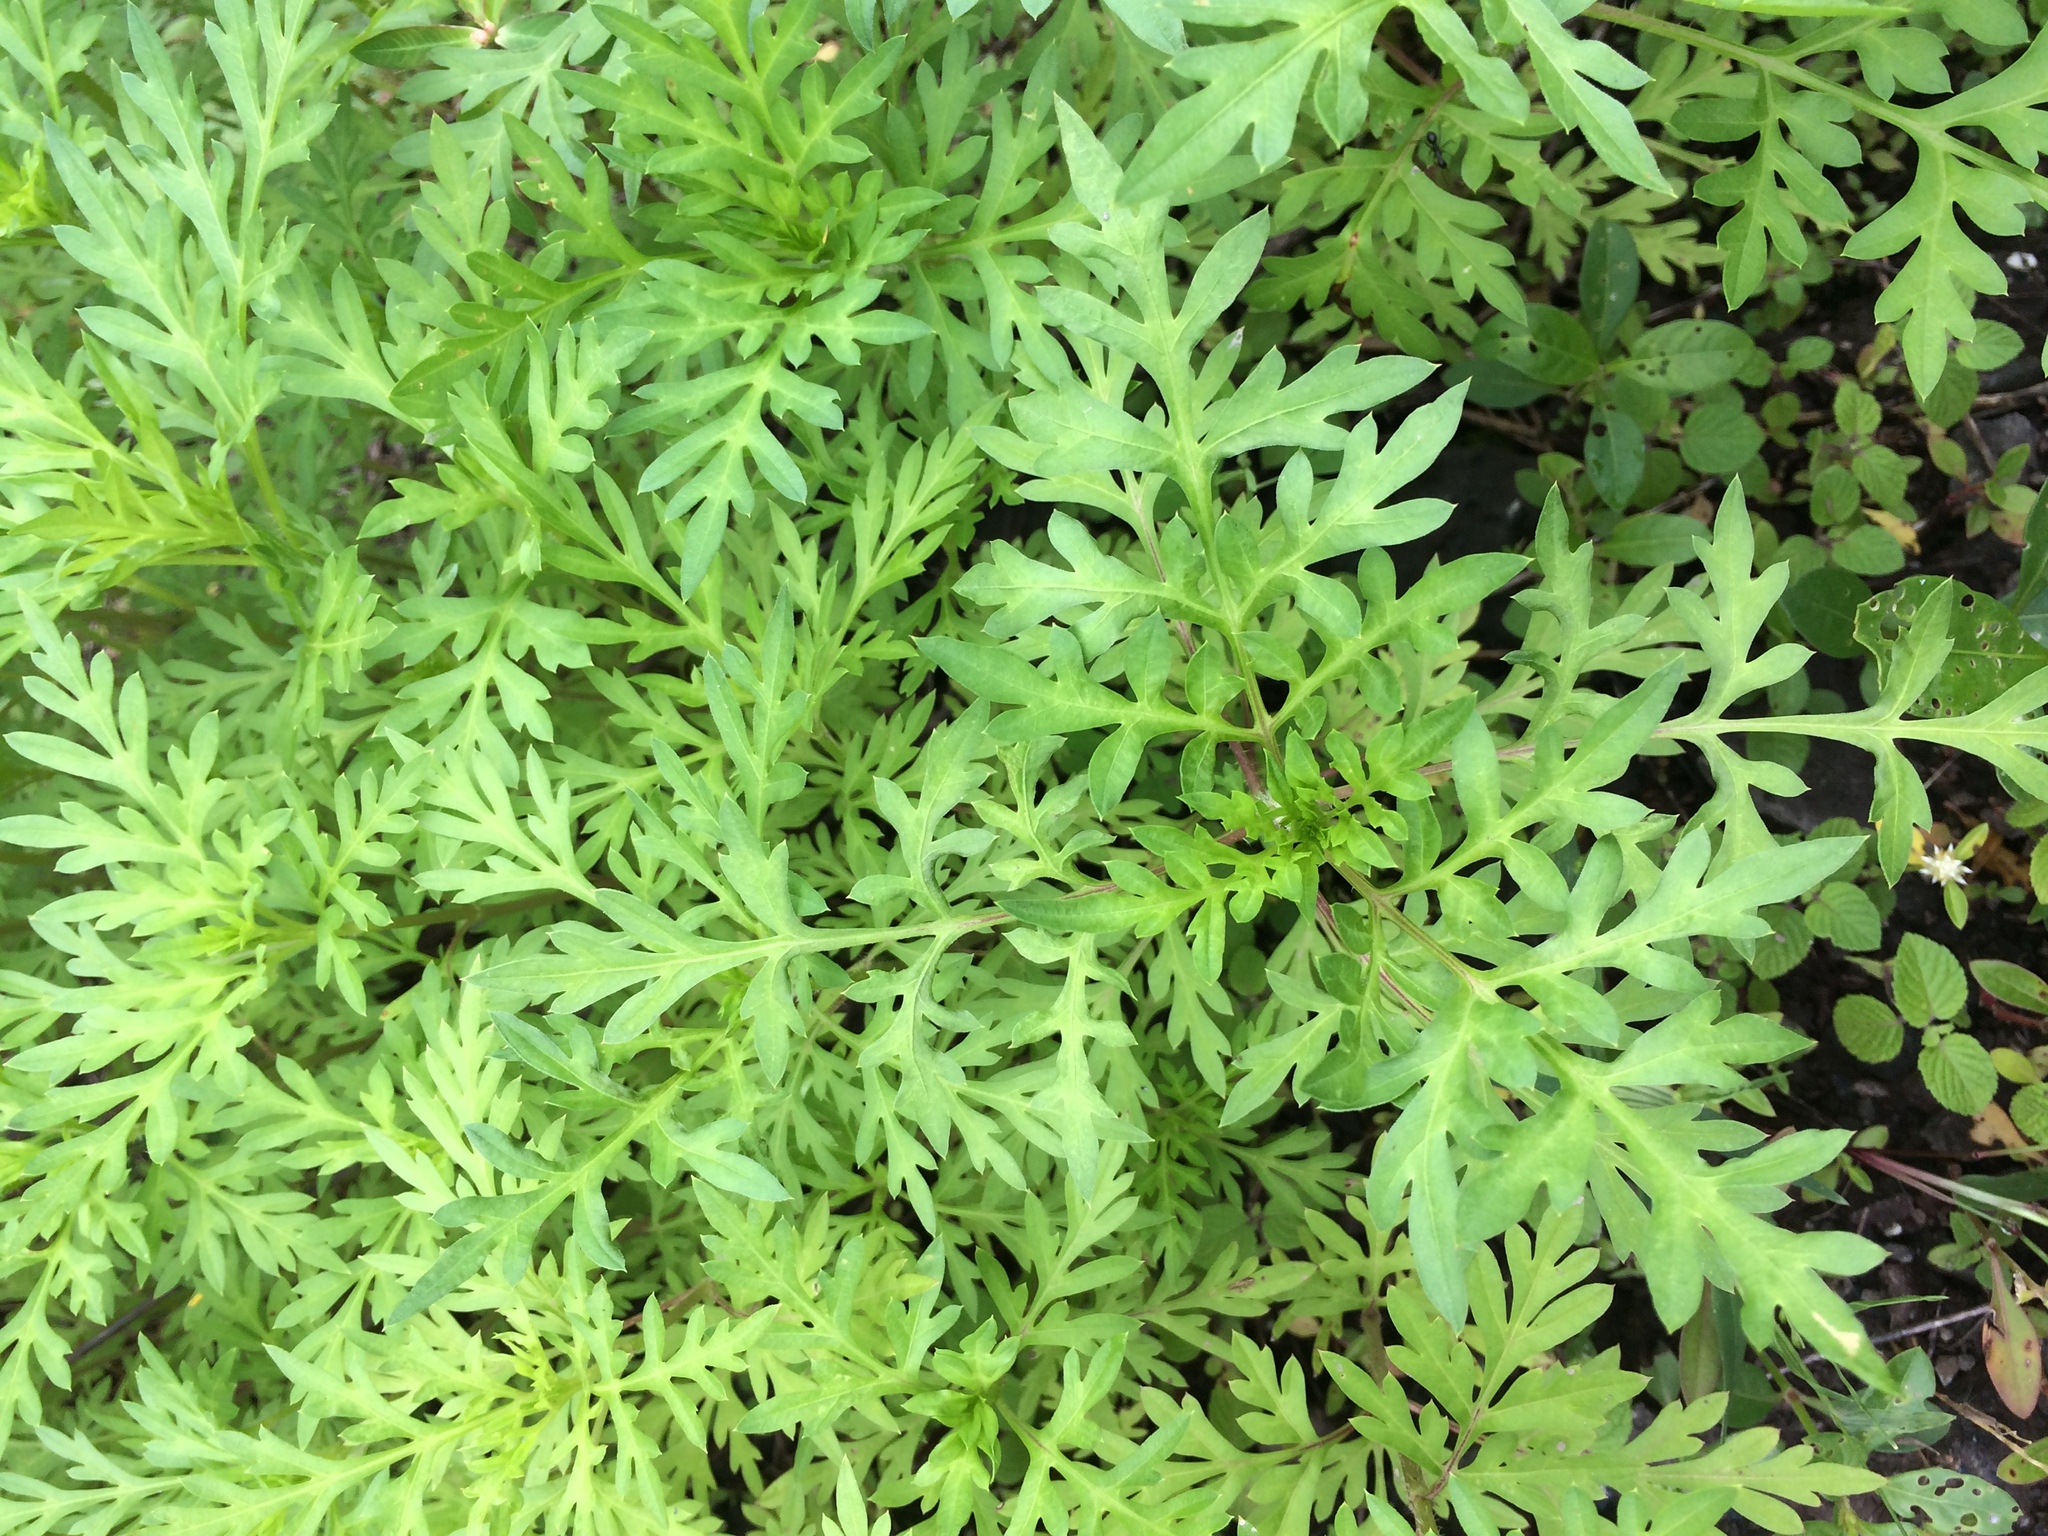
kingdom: Plantae
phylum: Tracheophyta
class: Magnoliopsida
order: Asterales
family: Asteraceae
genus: Cosmos
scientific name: Cosmos sulphureus
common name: Sulphur cosmos
